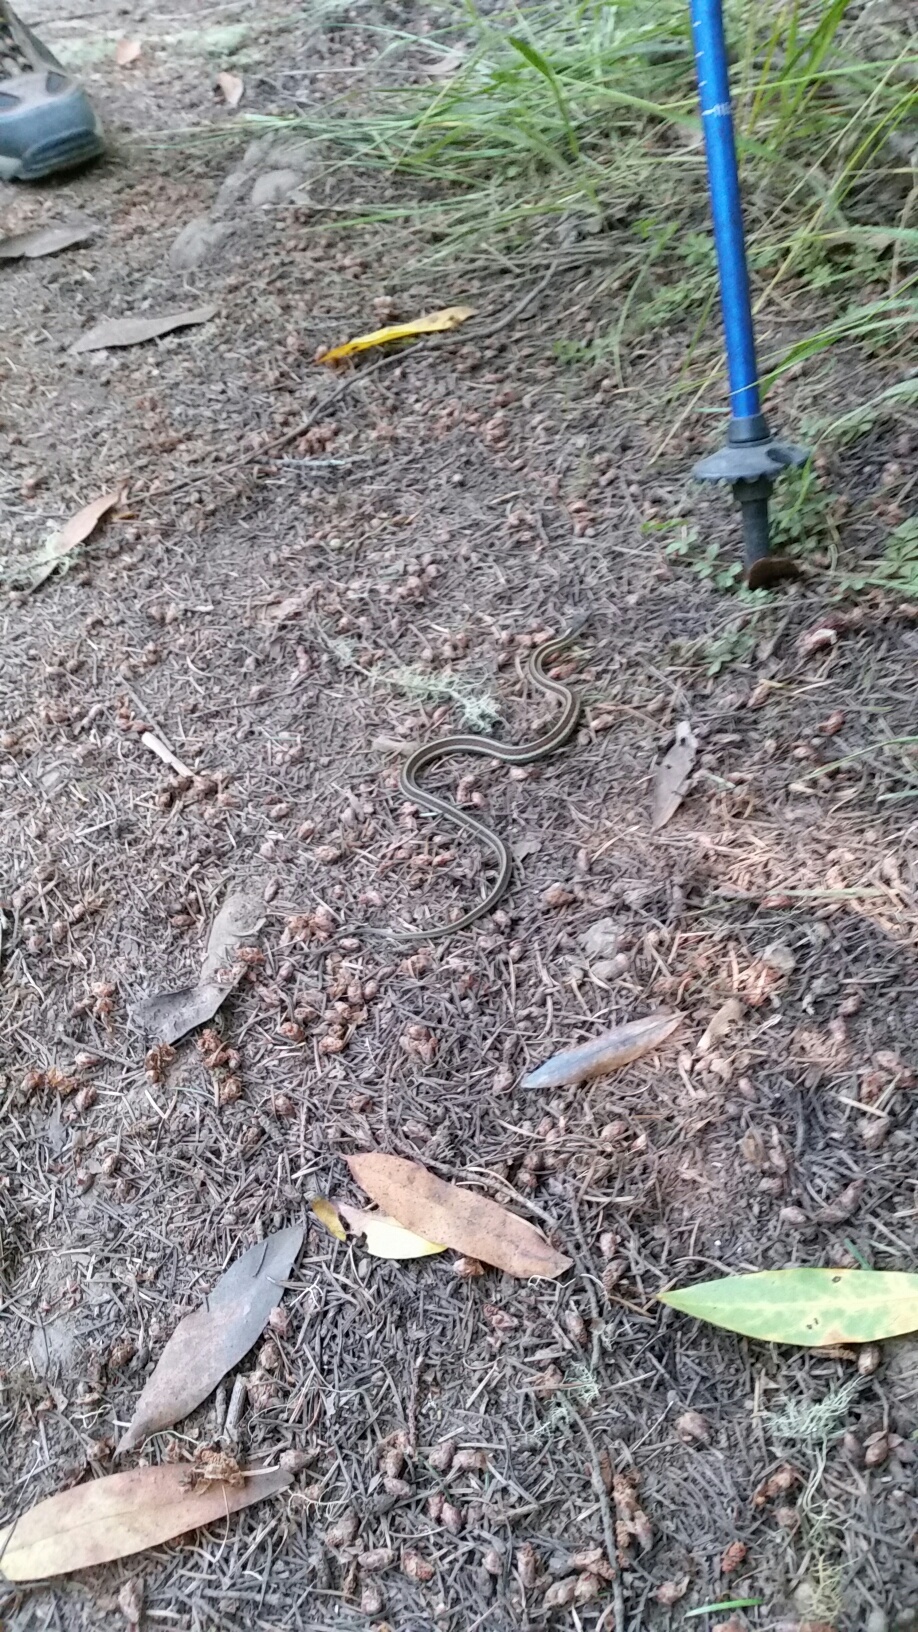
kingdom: Animalia
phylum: Chordata
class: Squamata
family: Colubridae
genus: Thamnophis
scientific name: Thamnophis elegans
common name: Western terrestrial garter snake
